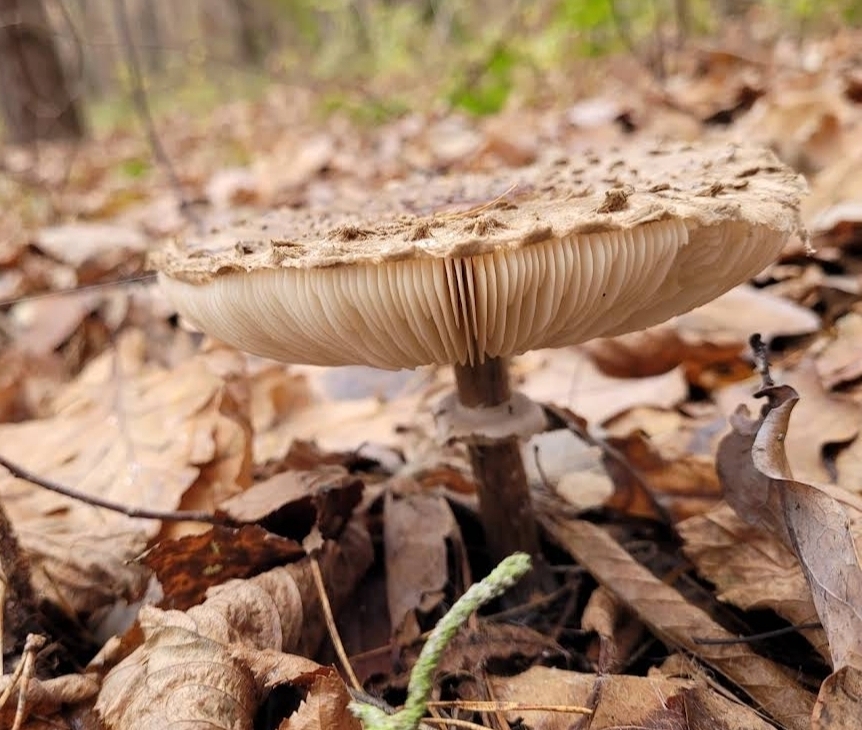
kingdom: Fungi
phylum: Basidiomycota
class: Agaricomycetes
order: Agaricales
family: Agaricaceae
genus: Macrolepiota
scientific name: Macrolepiota procera
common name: Parasol
